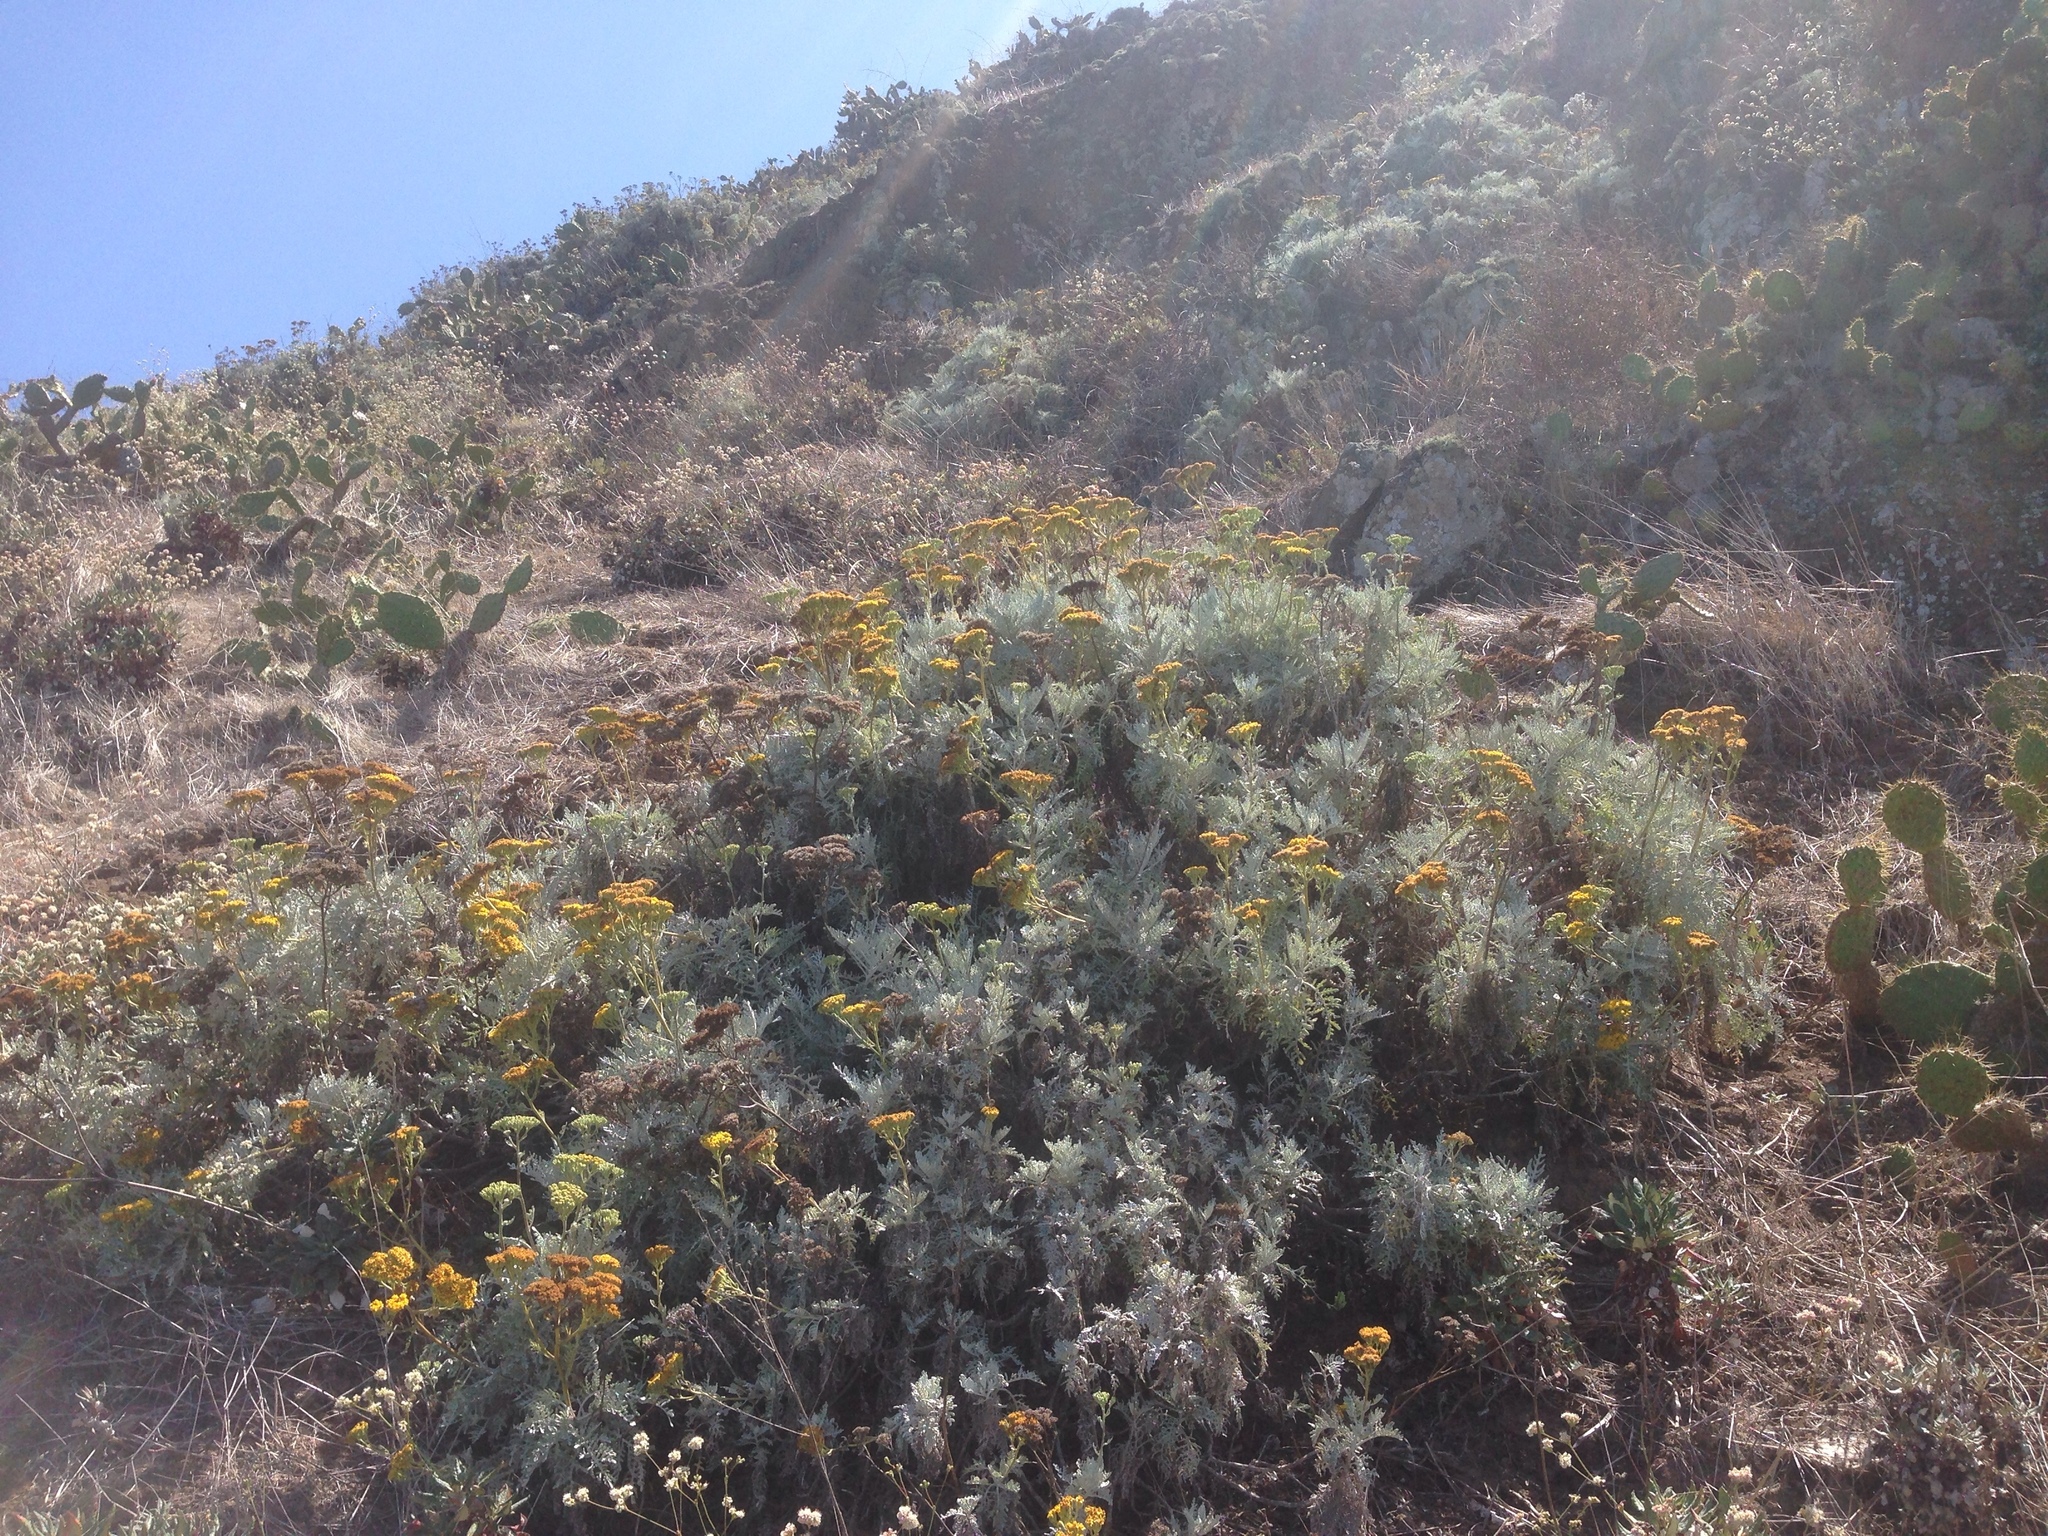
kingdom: Plantae
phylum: Tracheophyta
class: Magnoliopsida
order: Asterales
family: Asteraceae
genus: Constancea
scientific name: Constancea nevinii
